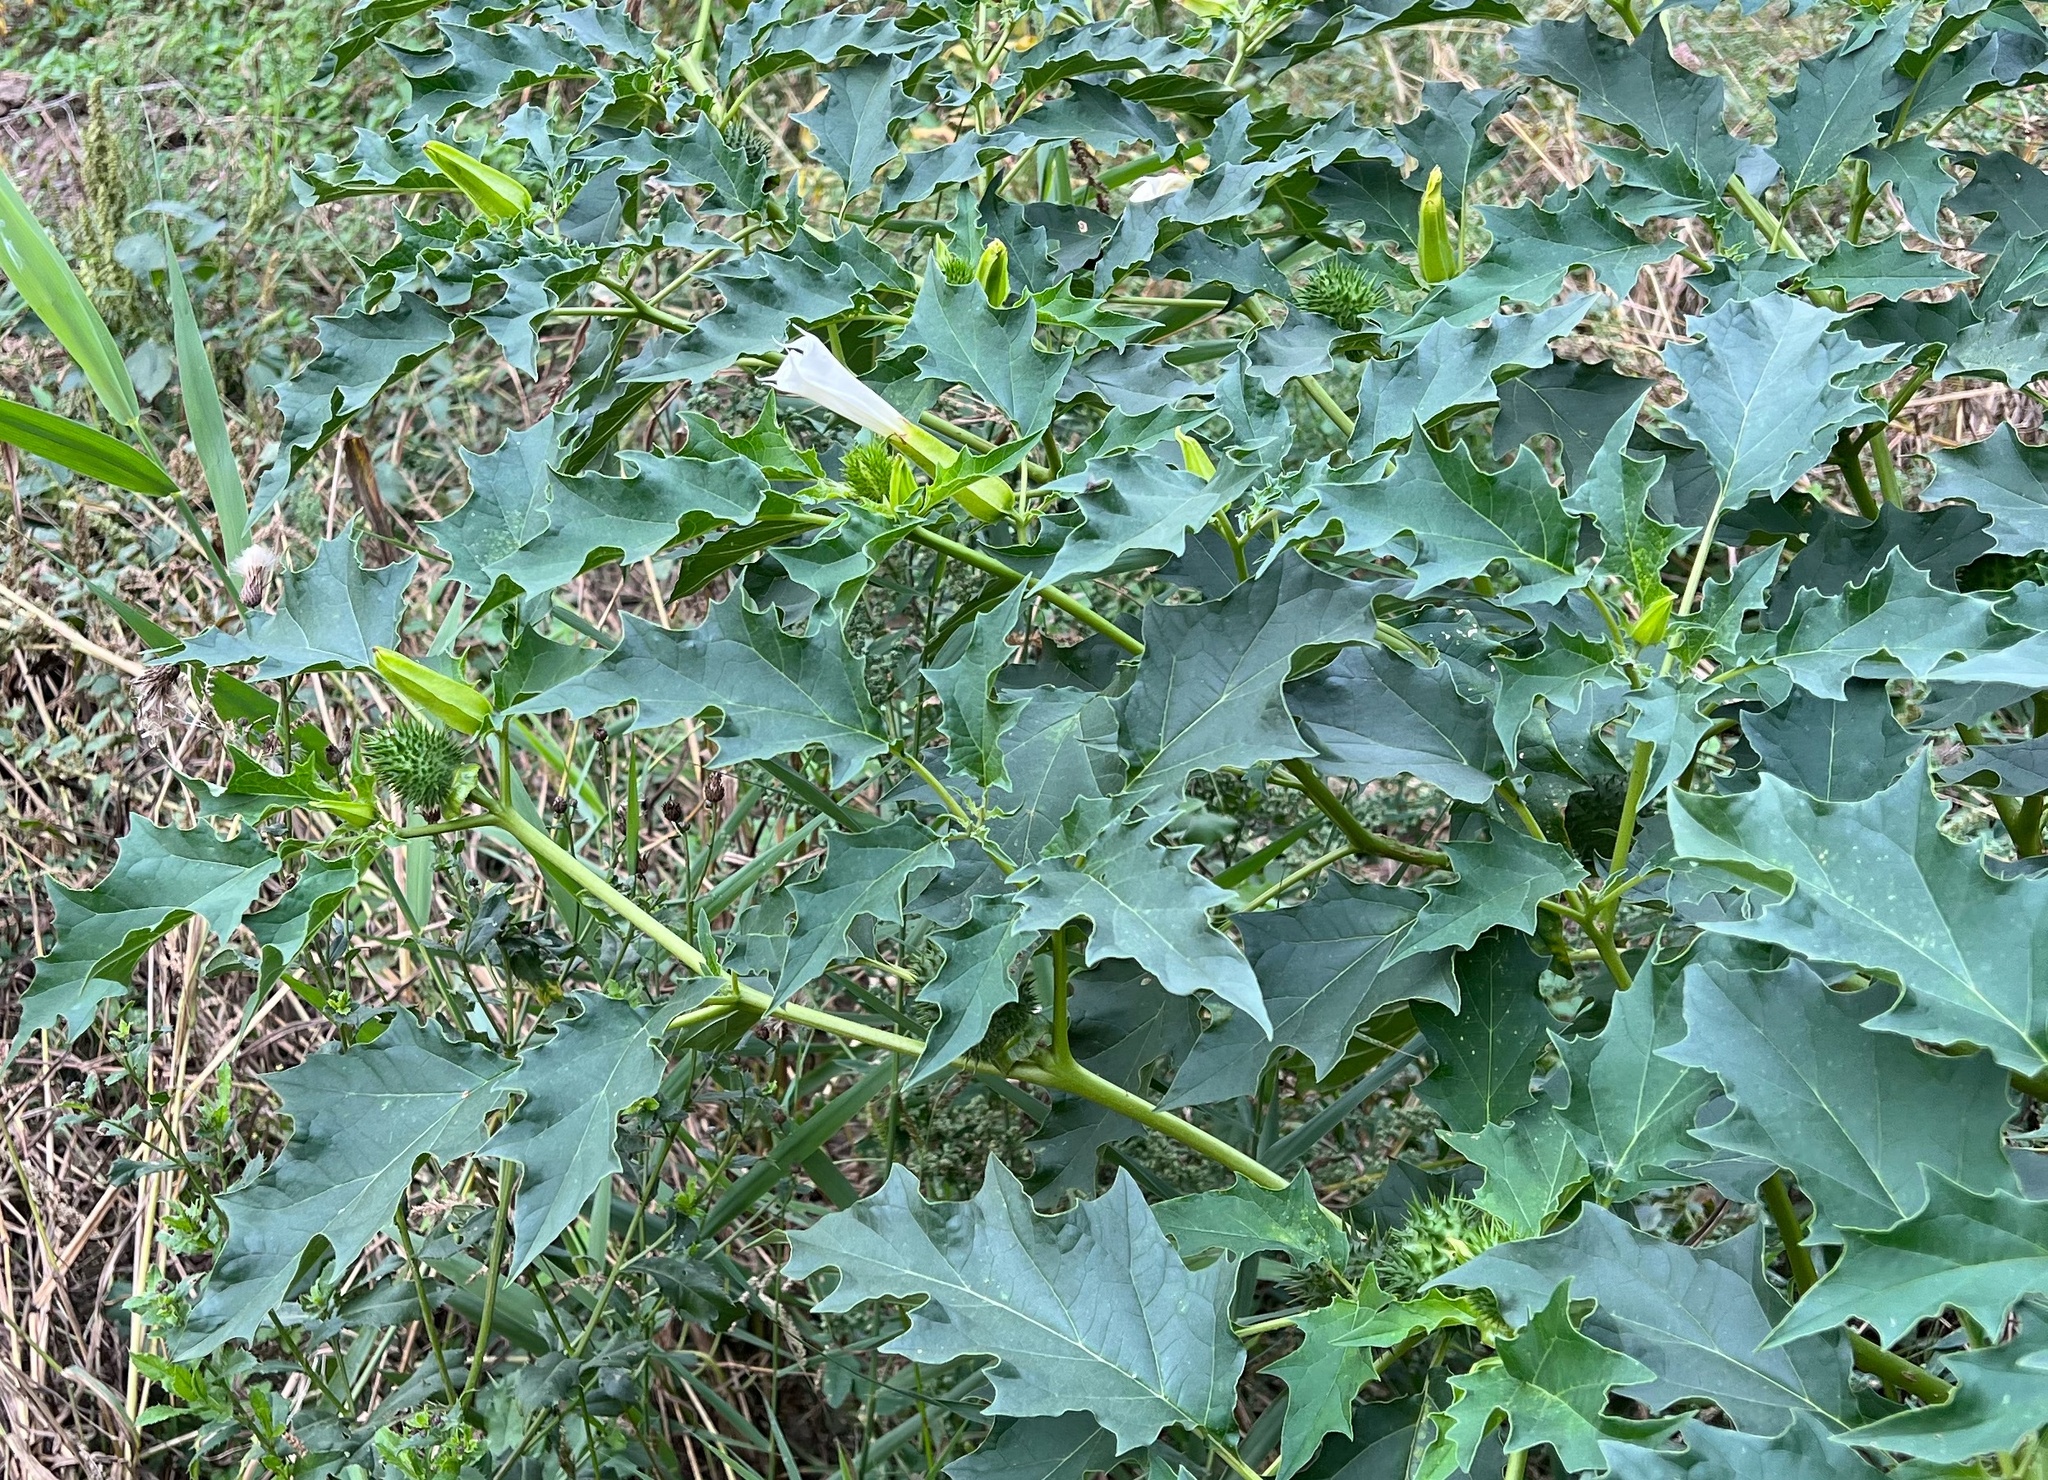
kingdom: Plantae
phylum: Tracheophyta
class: Magnoliopsida
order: Solanales
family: Solanaceae
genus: Datura
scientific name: Datura stramonium
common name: Thorn-apple
